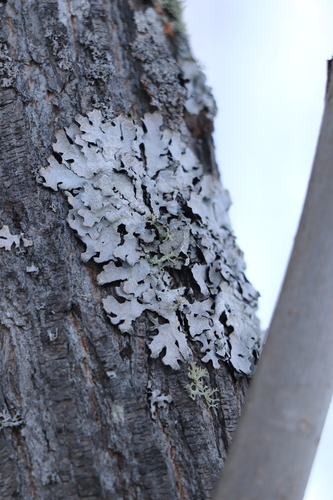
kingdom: Fungi
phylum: Ascomycota
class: Lecanoromycetes
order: Lecanorales
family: Parmeliaceae
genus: Parmelia
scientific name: Parmelia sulcata
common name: Netted shield lichen
